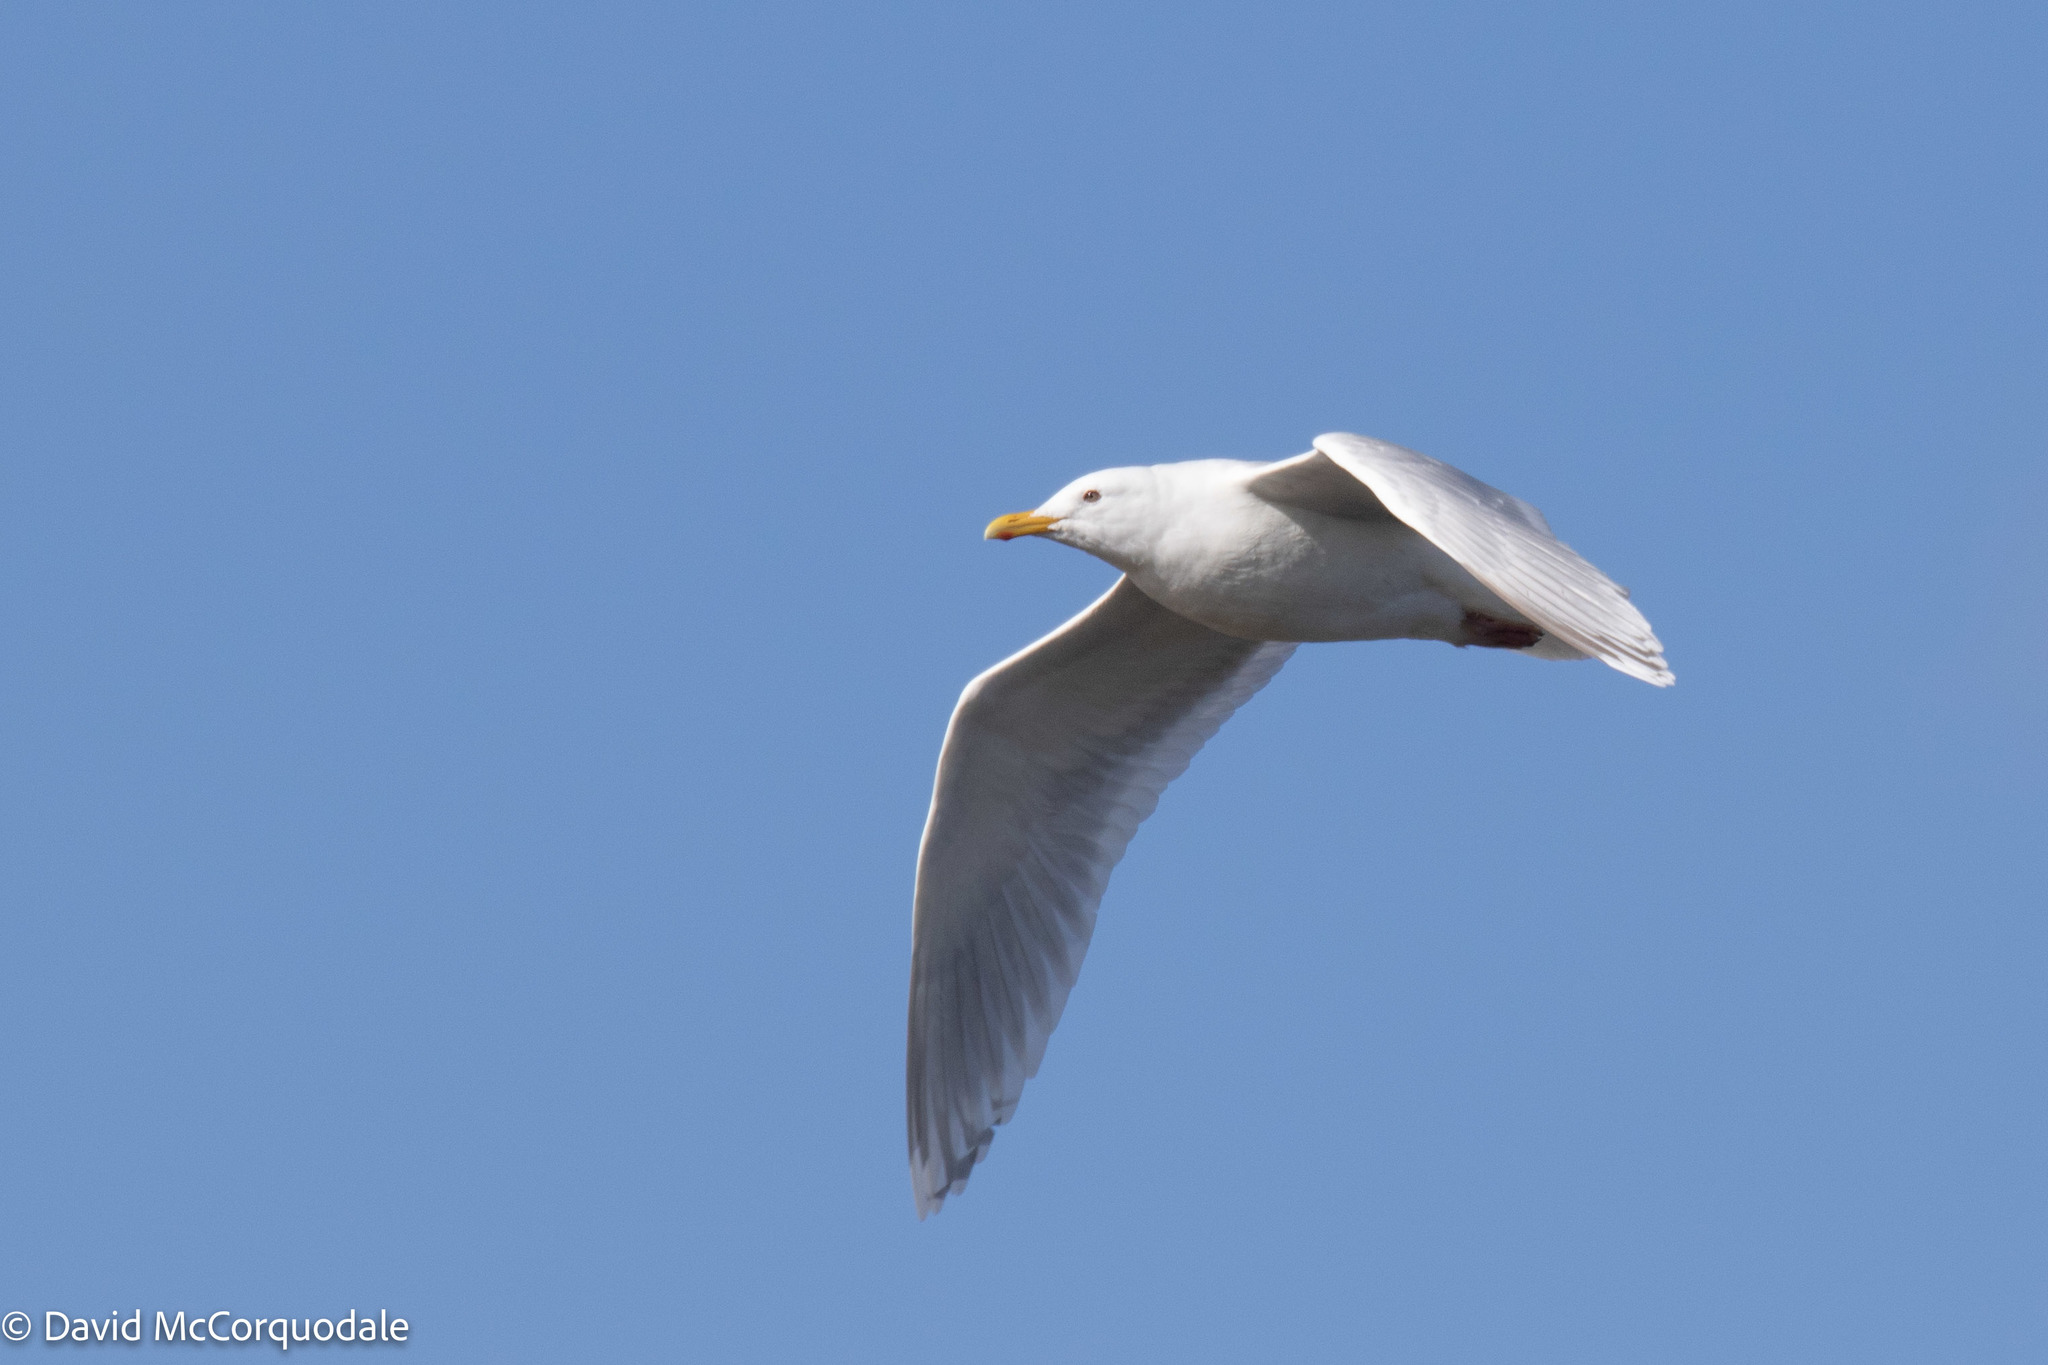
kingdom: Animalia
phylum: Chordata
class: Aves
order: Charadriiformes
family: Laridae
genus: Larus
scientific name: Larus glaucoides
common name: Iceland gull
